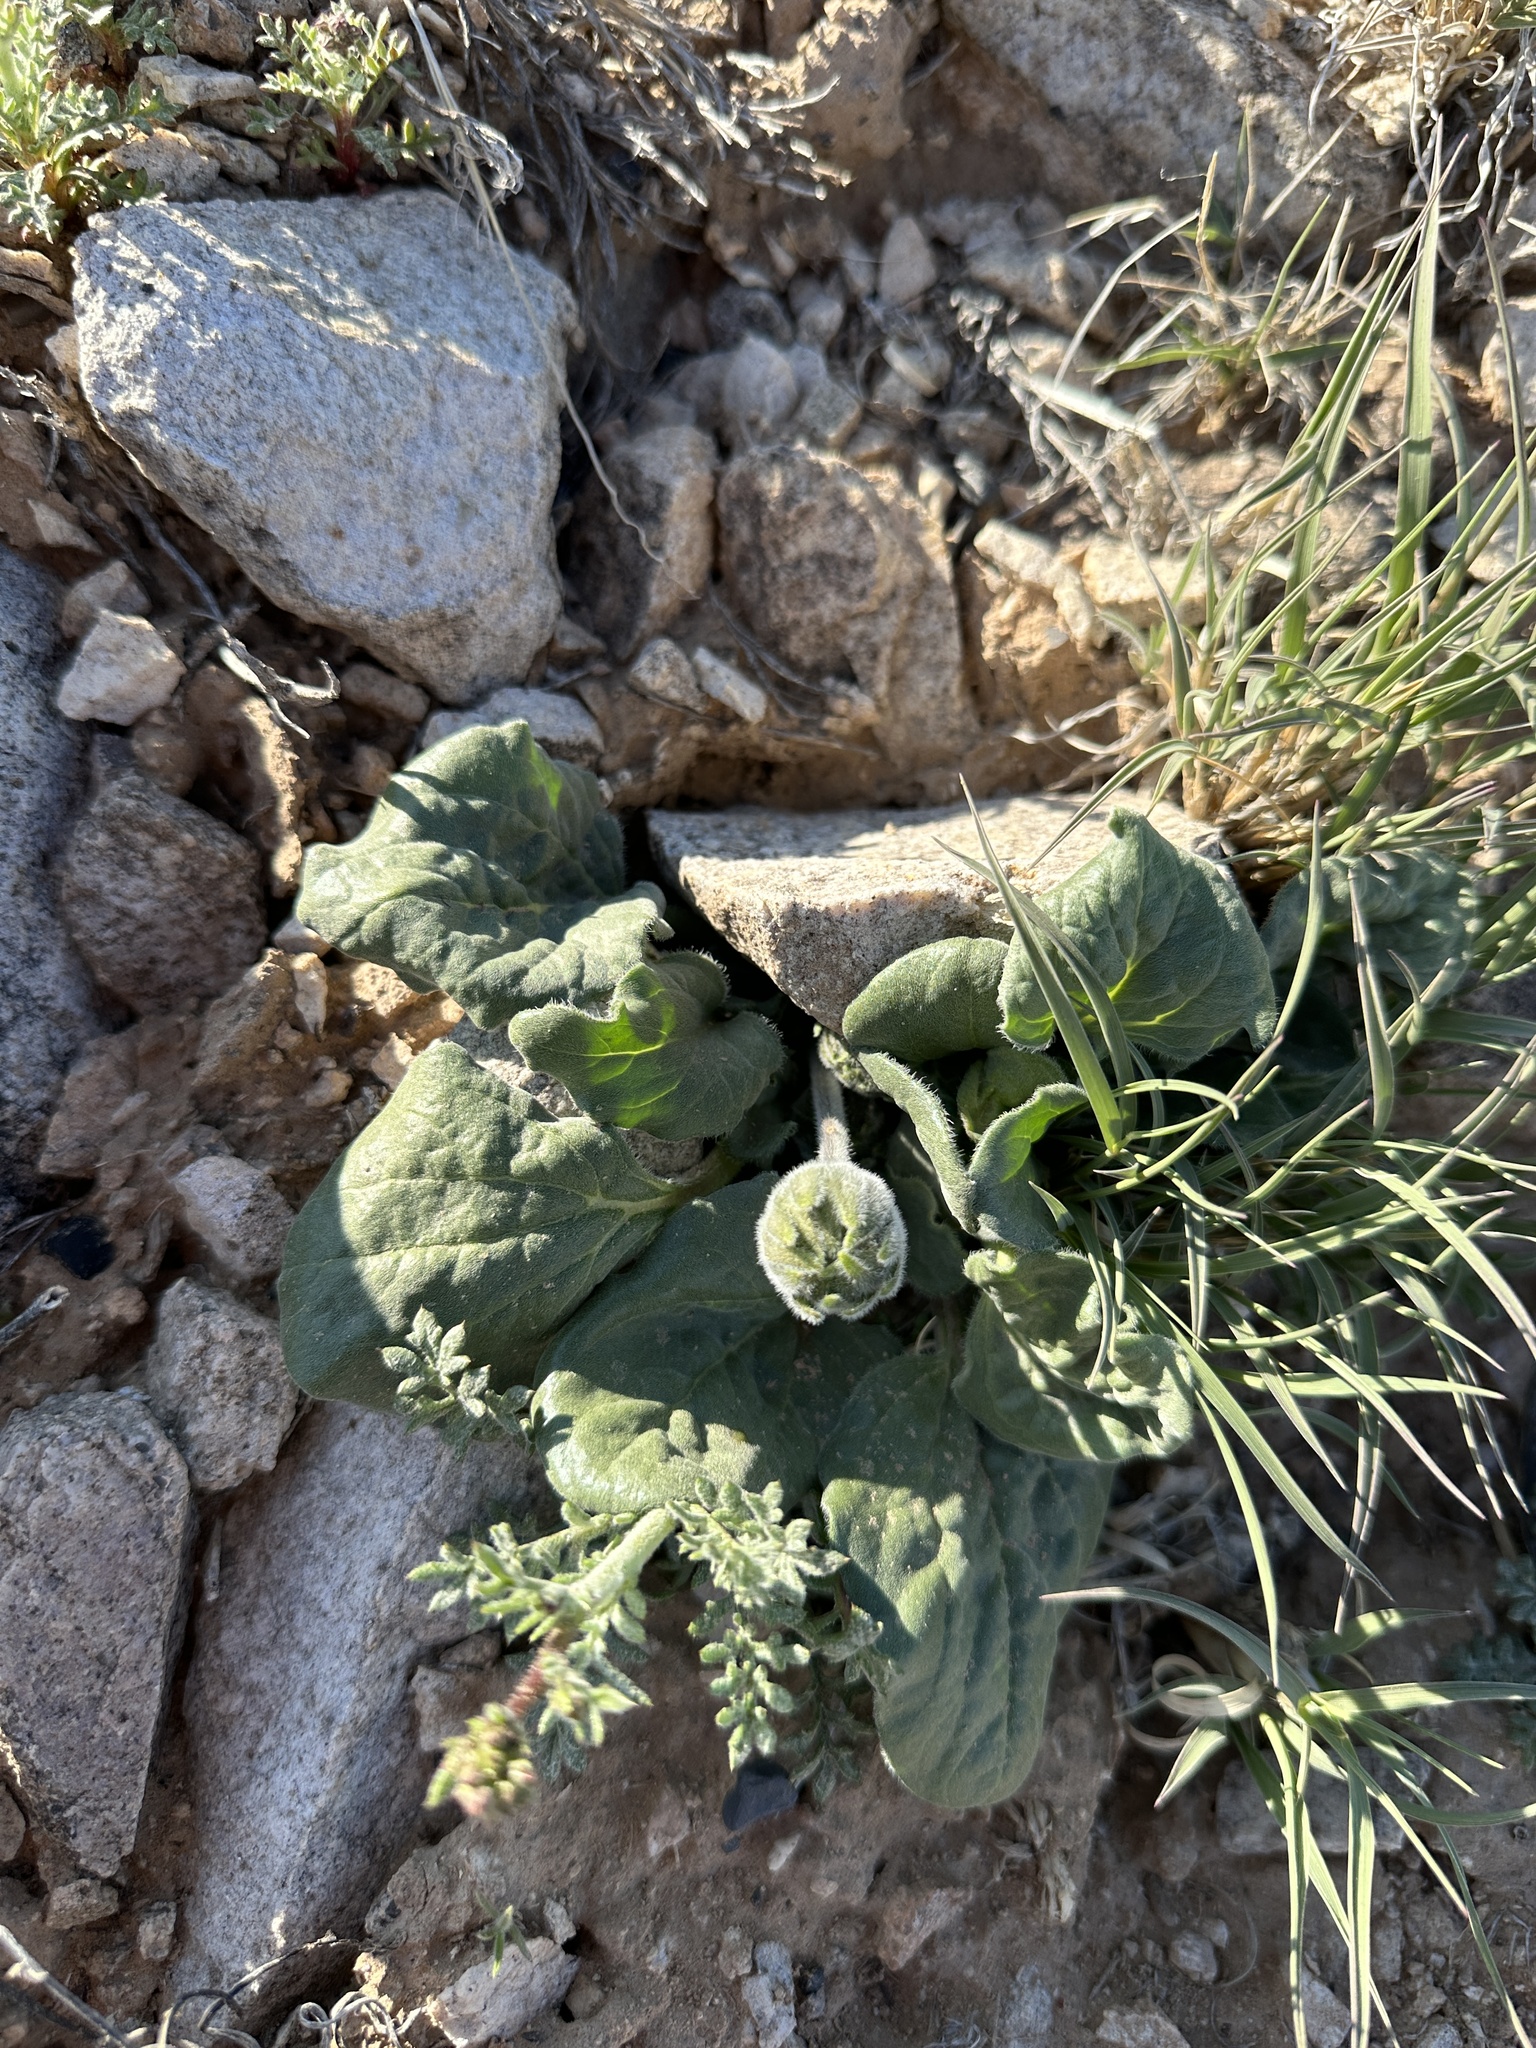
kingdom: Plantae
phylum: Tracheophyta
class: Magnoliopsida
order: Asterales
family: Asteraceae
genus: Encelia
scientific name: Encelia nutans
